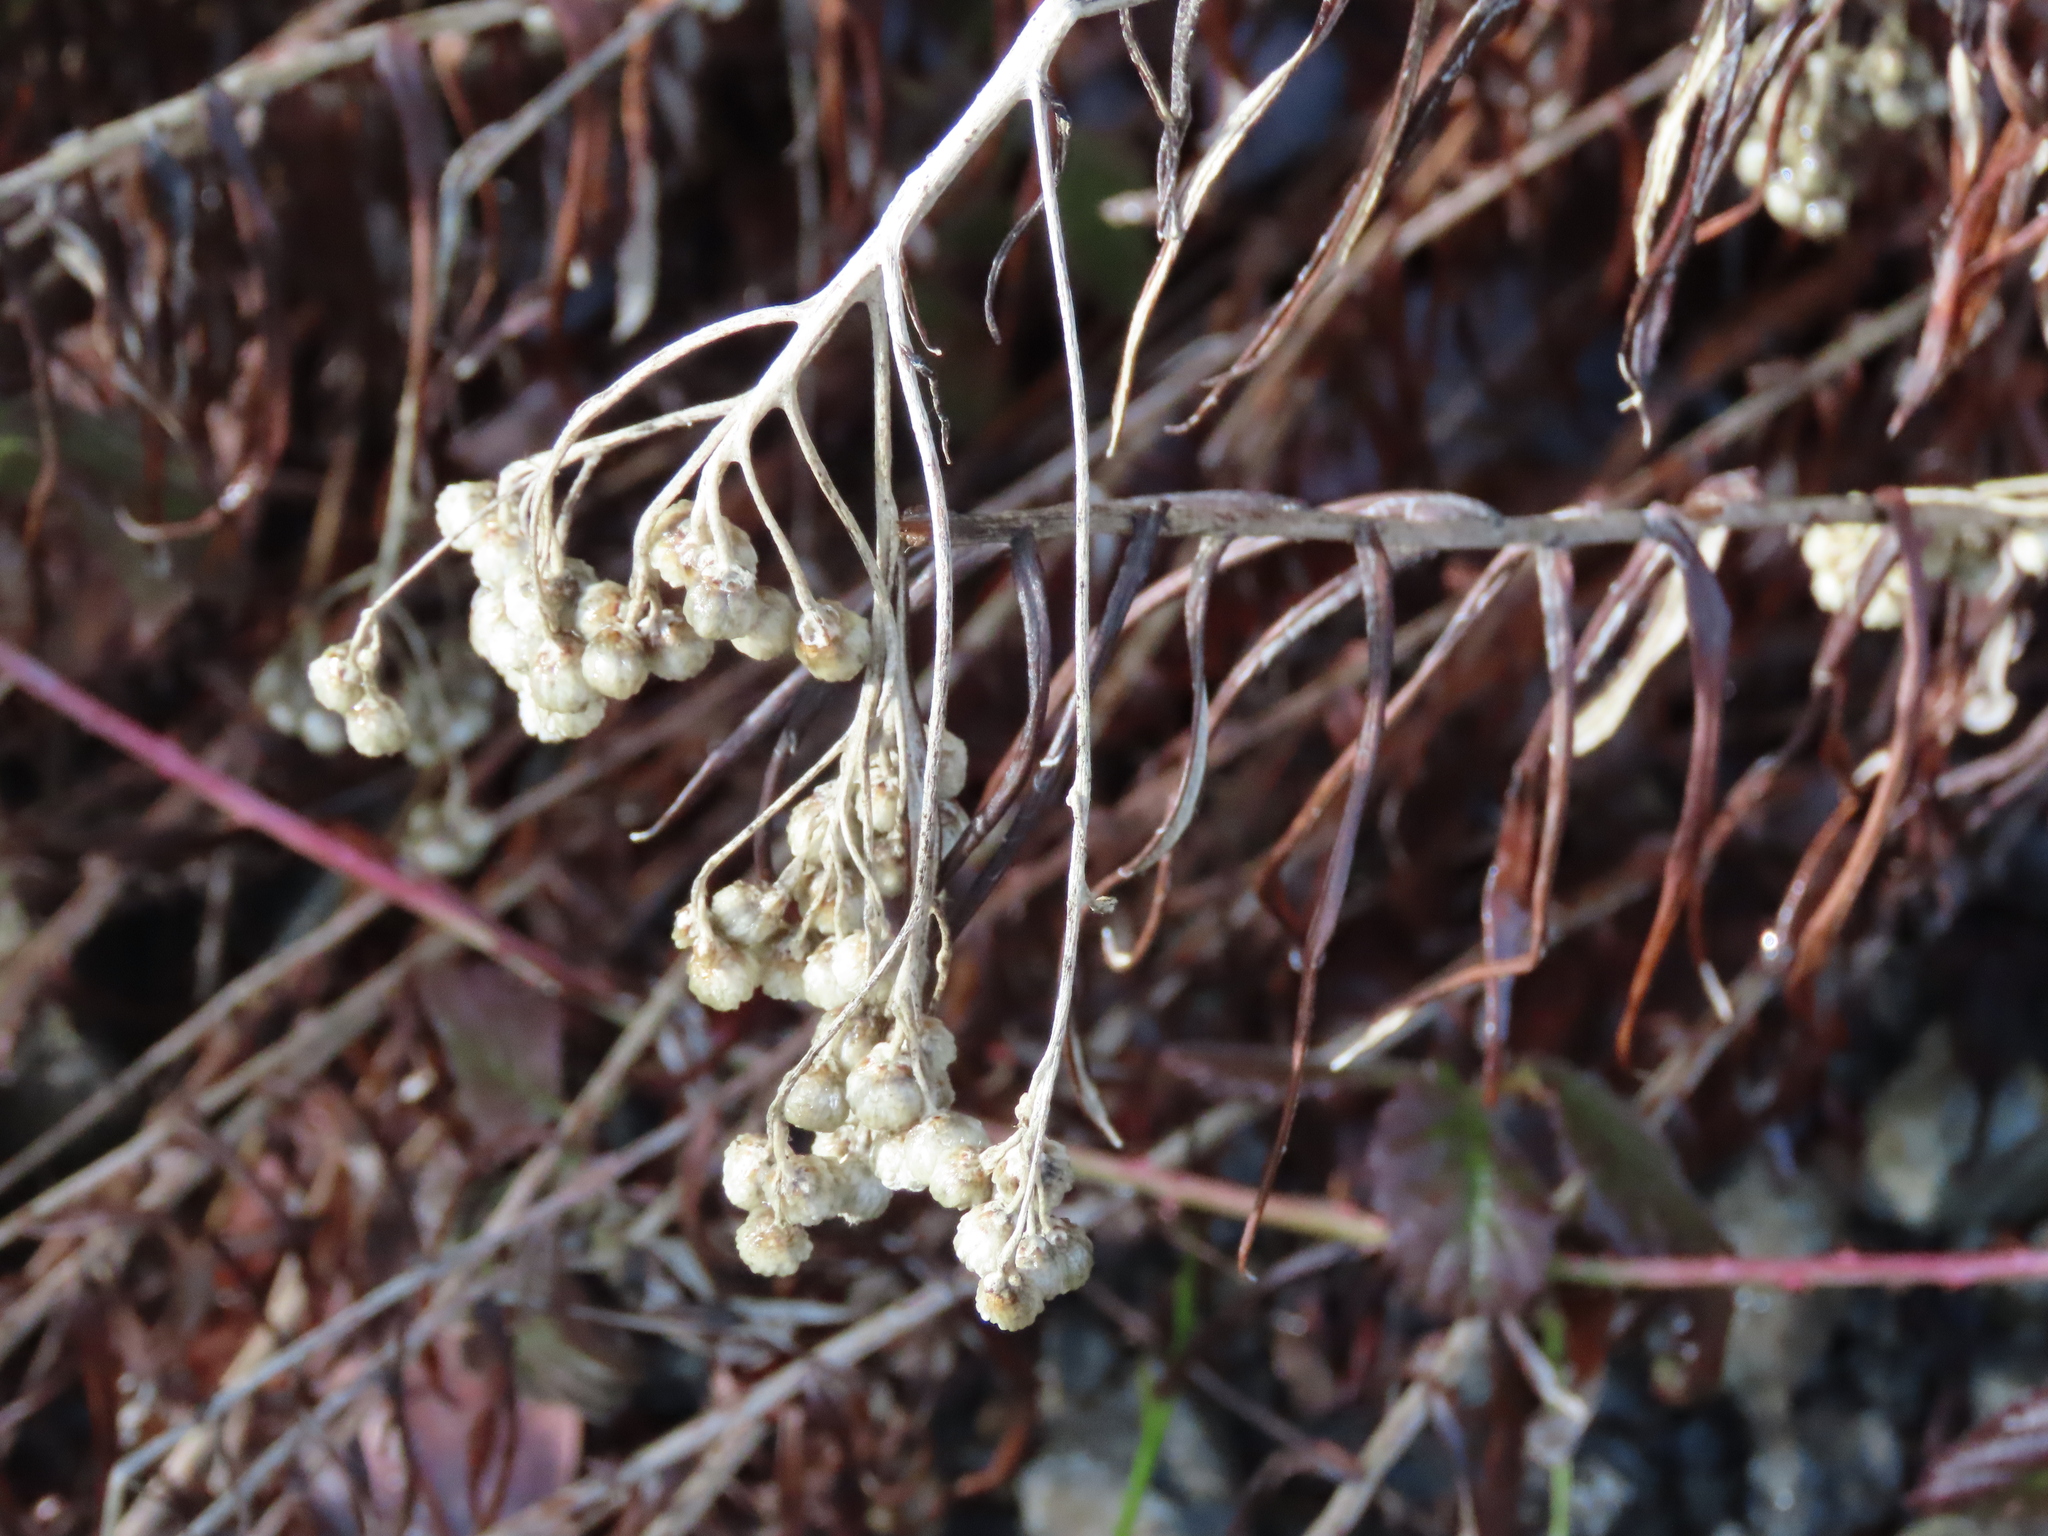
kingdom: Plantae
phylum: Tracheophyta
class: Magnoliopsida
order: Asterales
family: Asteraceae
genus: Anaphalis
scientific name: Anaphalis margaritacea
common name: Pearly everlasting
